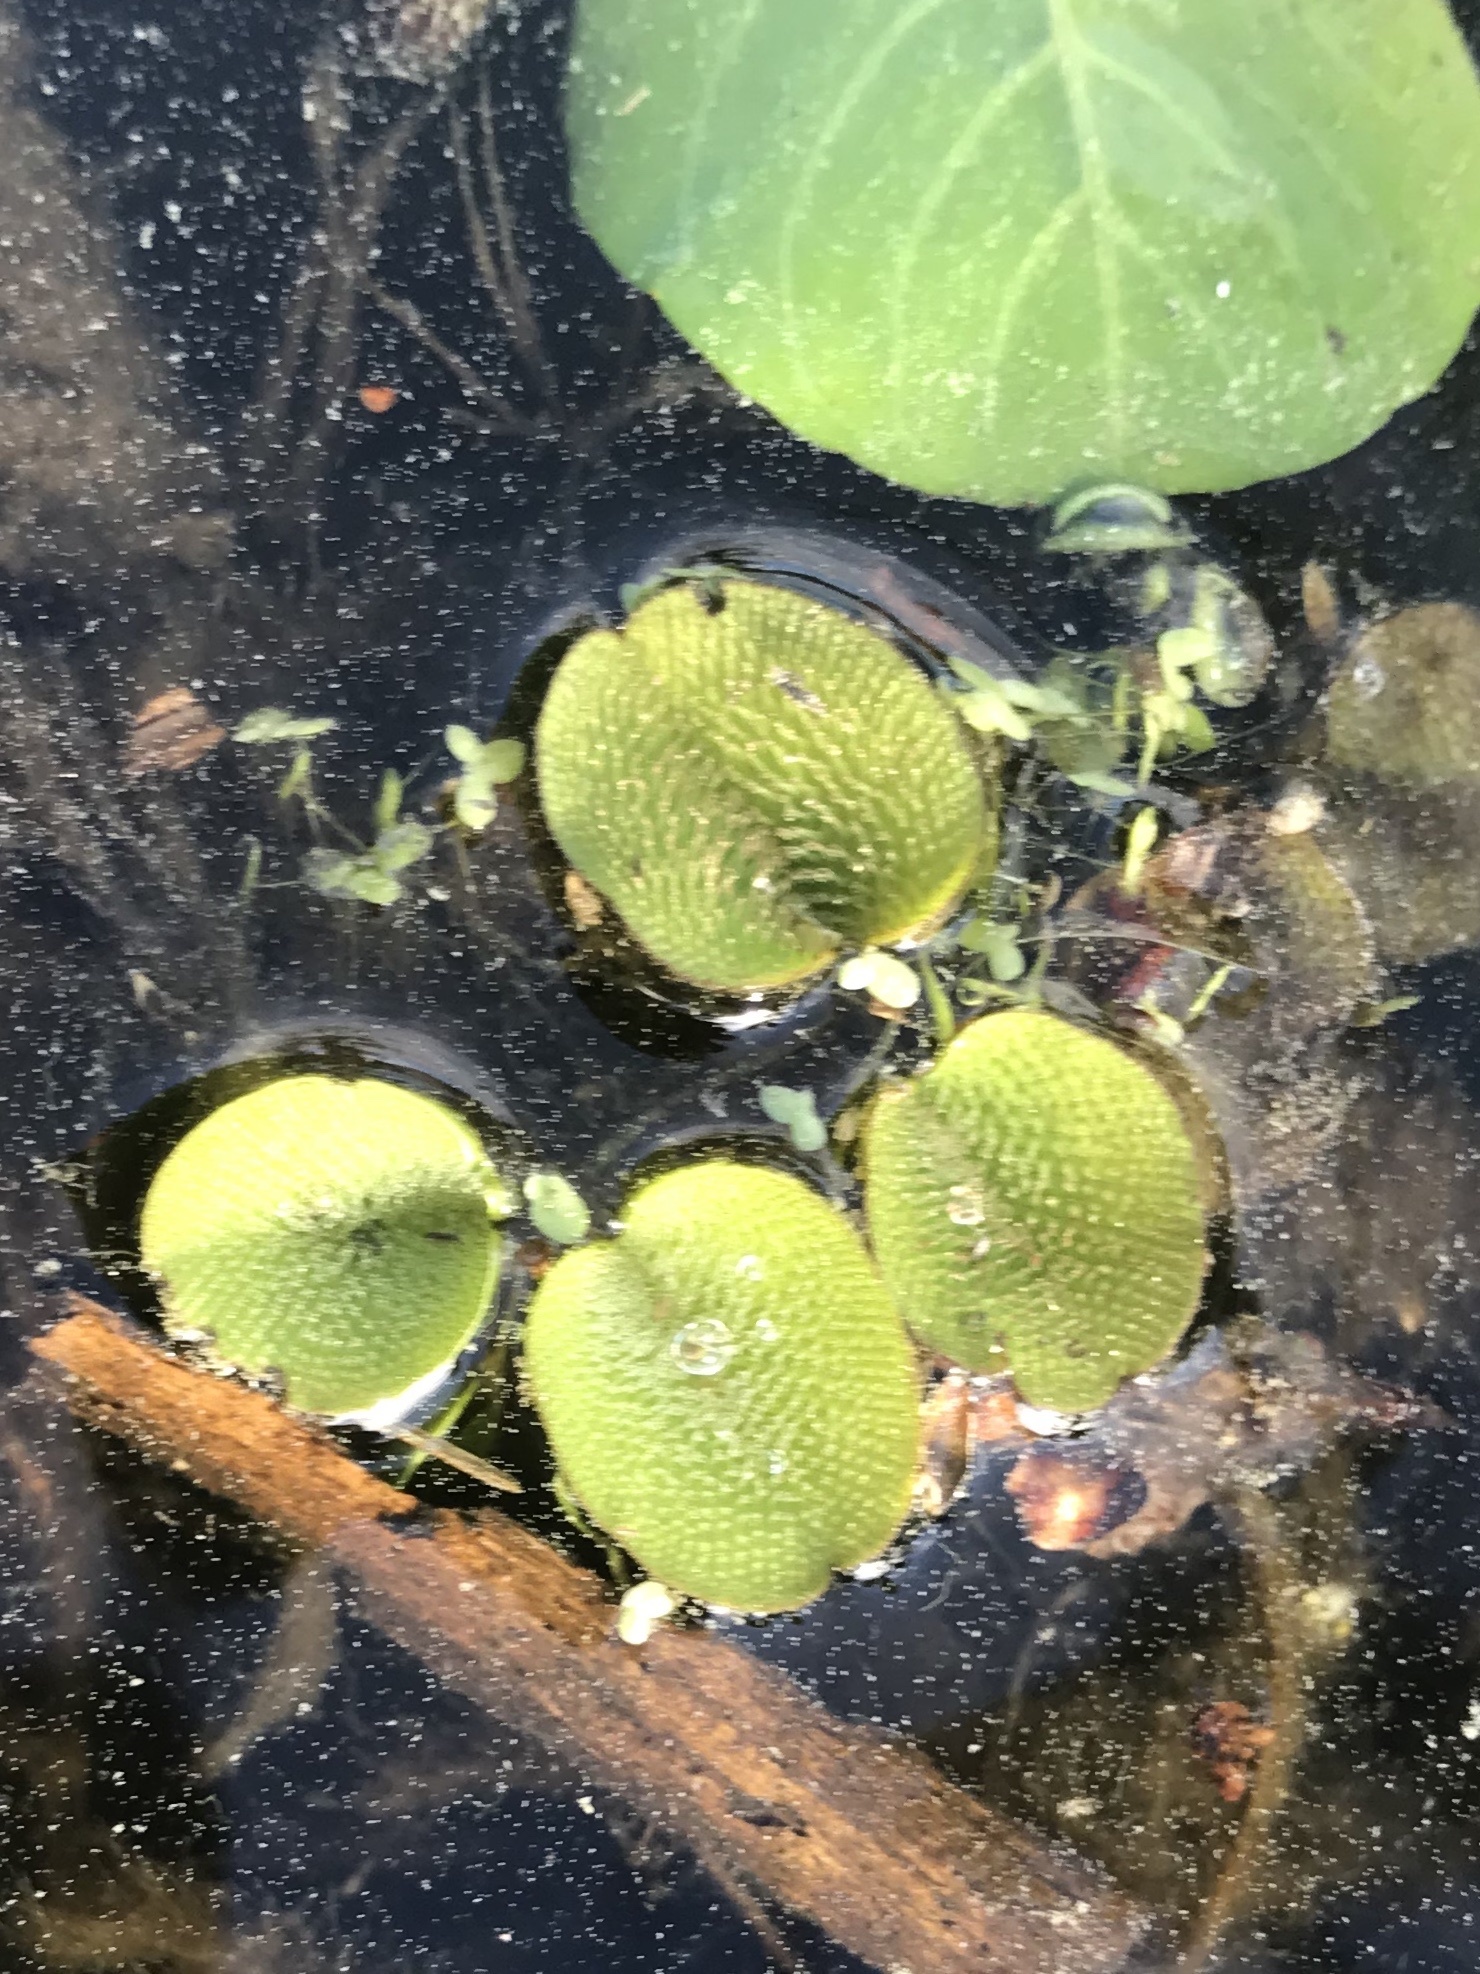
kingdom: Plantae
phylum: Tracheophyta
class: Polypodiopsida
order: Salviniales
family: Salviniaceae
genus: Salvinia
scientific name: Salvinia minima
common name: Water spangles
